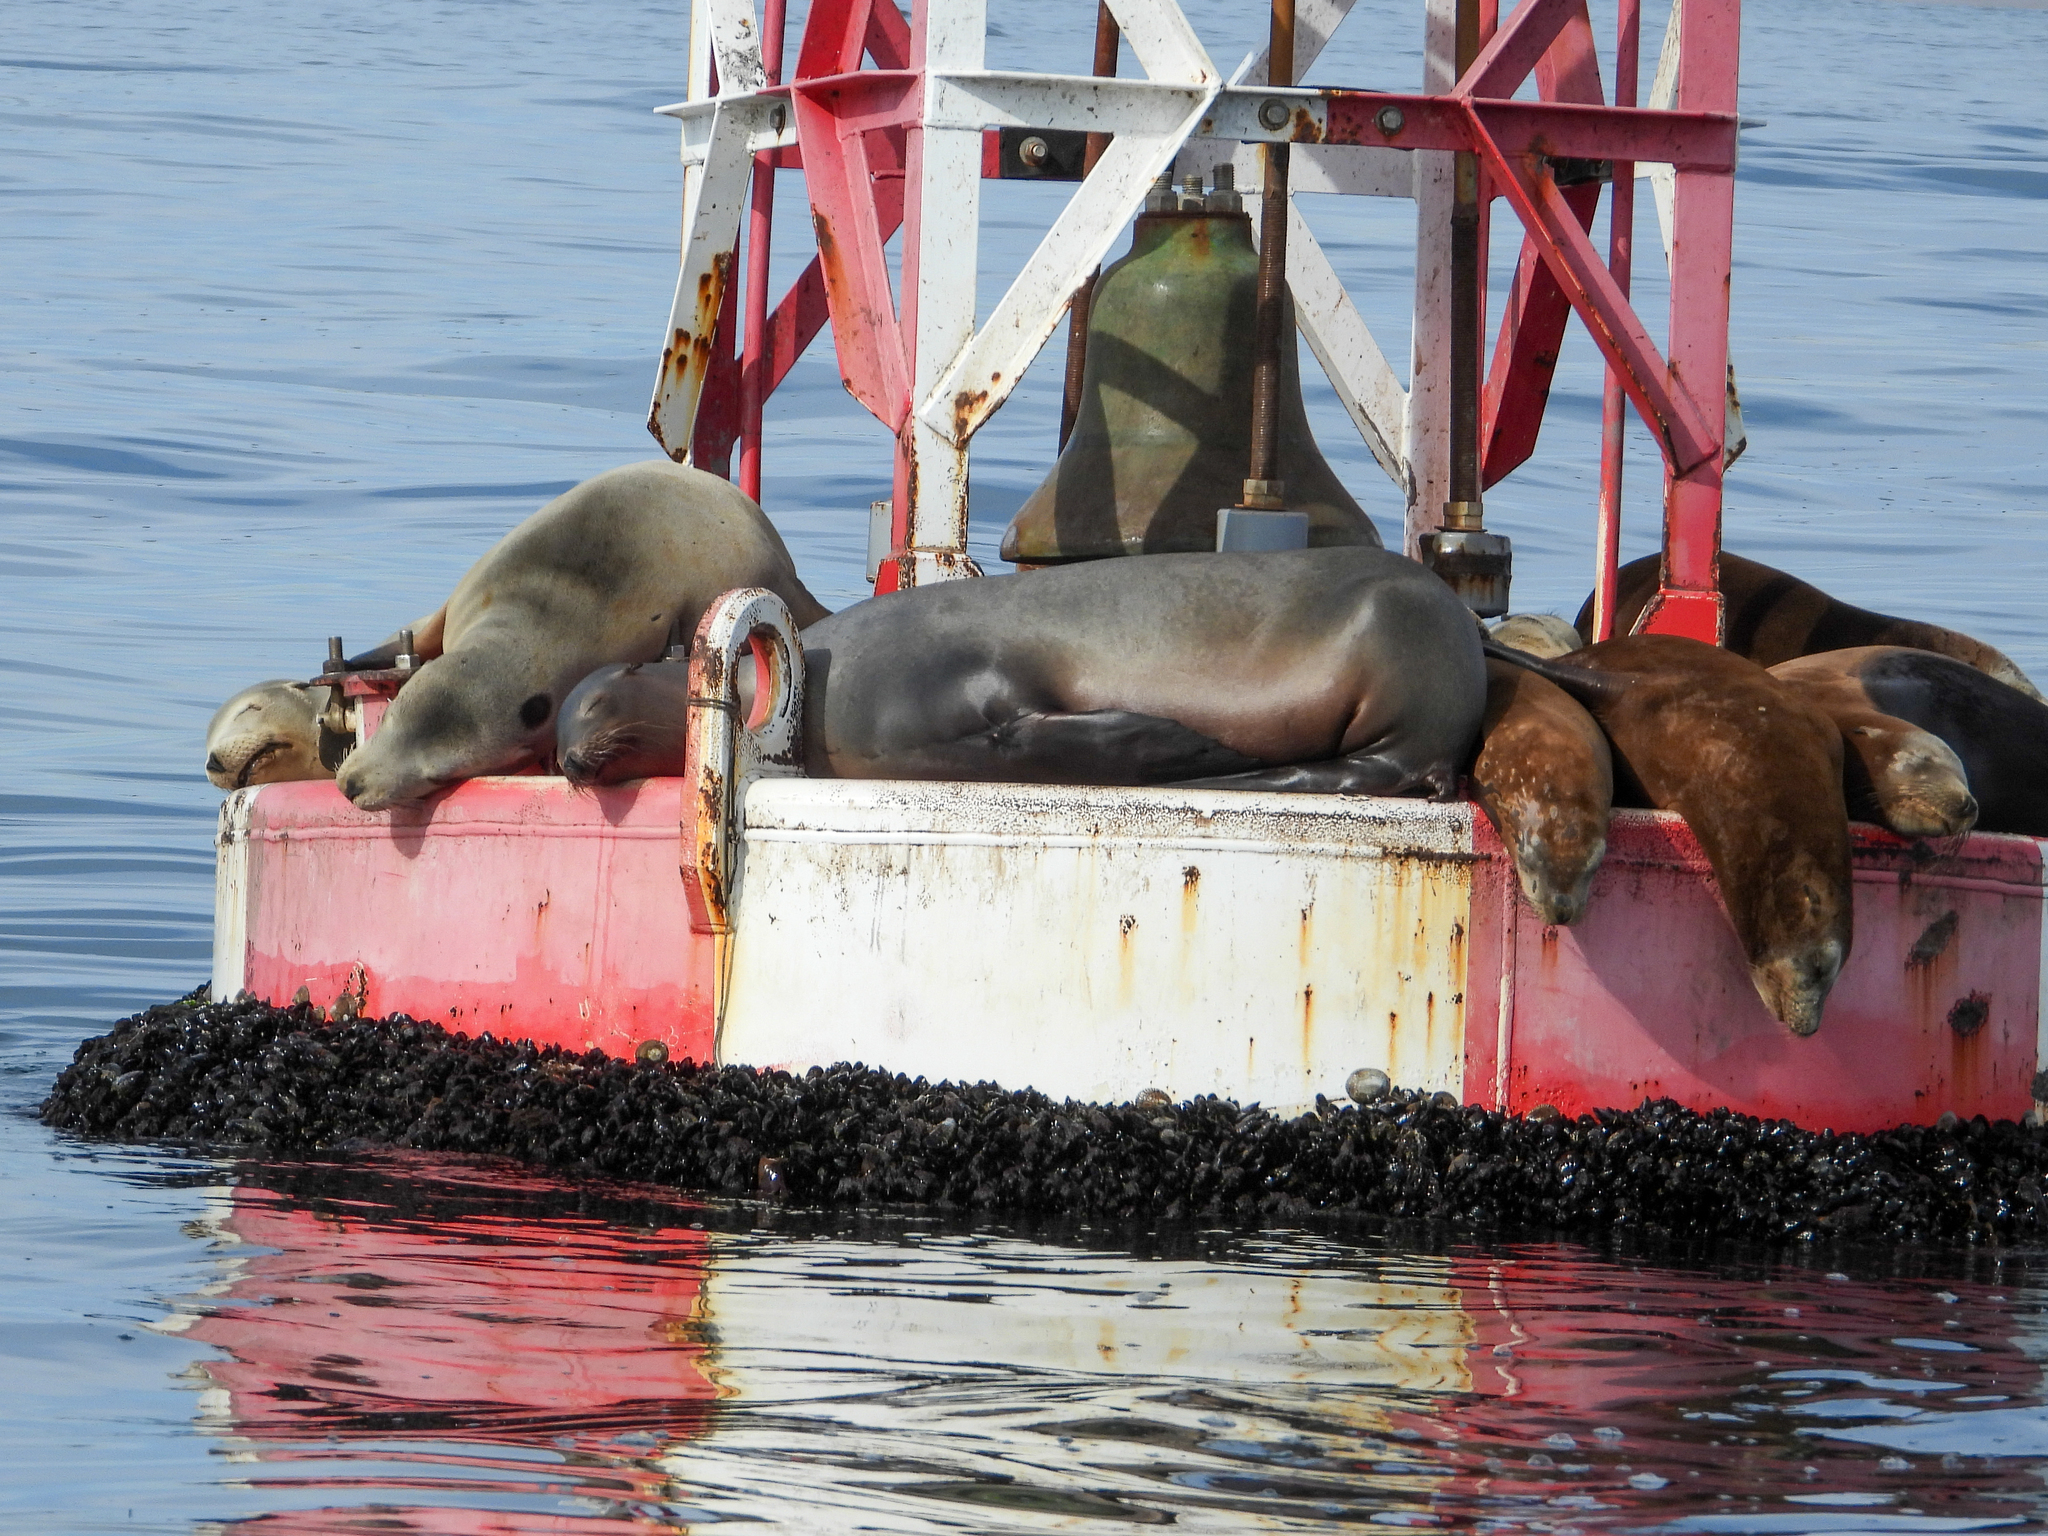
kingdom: Animalia
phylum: Chordata
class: Mammalia
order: Carnivora
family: Otariidae
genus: Zalophus
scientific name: Zalophus californianus
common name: California sea lion
